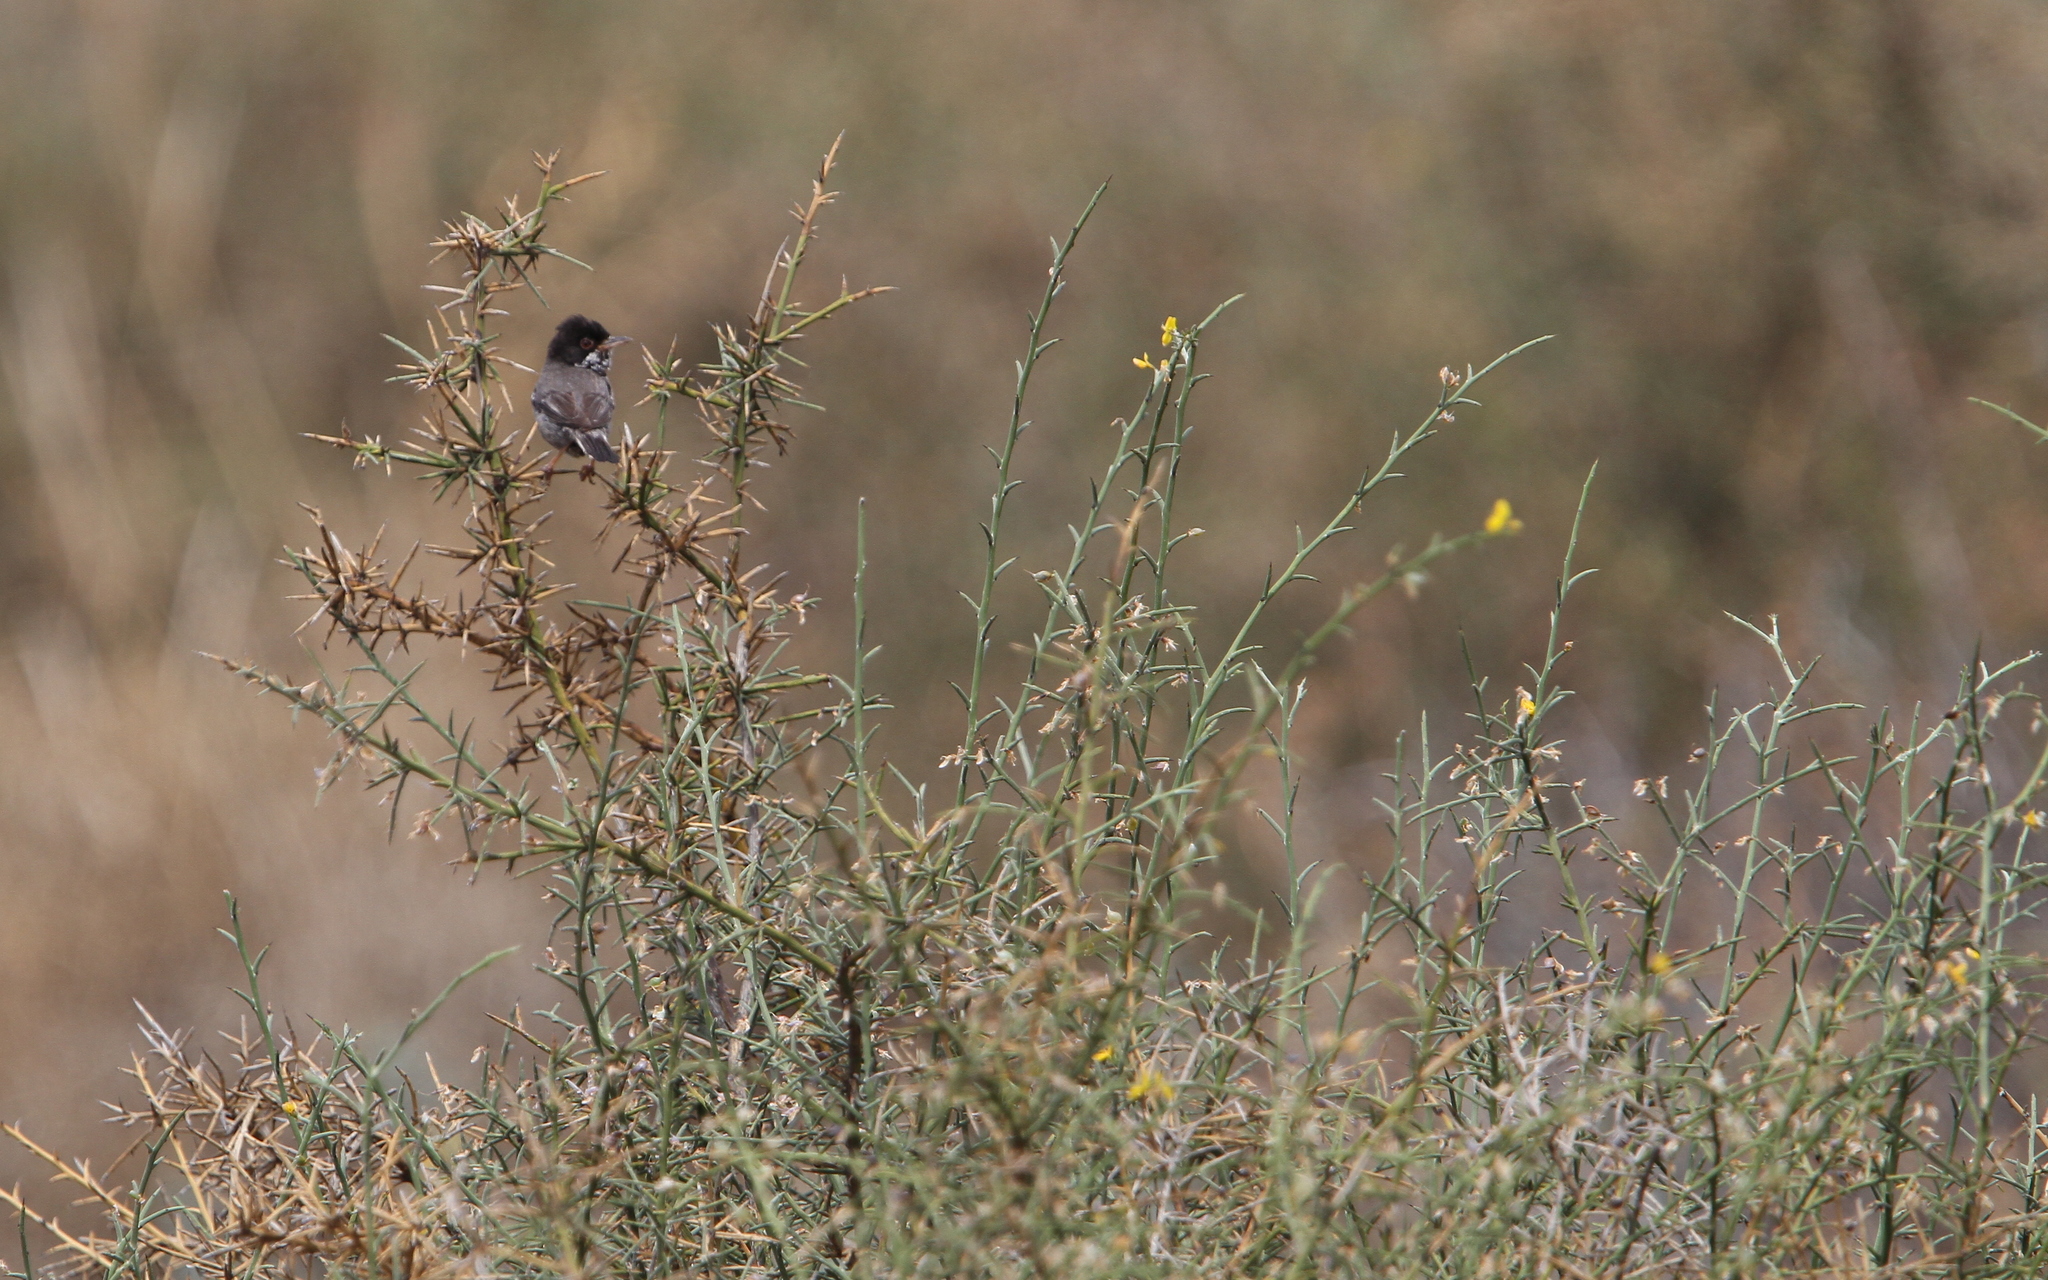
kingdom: Animalia
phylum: Chordata
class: Aves
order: Passeriformes
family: Sylviidae
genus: Sylvia
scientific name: Sylvia melanothorax
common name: Cyprus warbler
